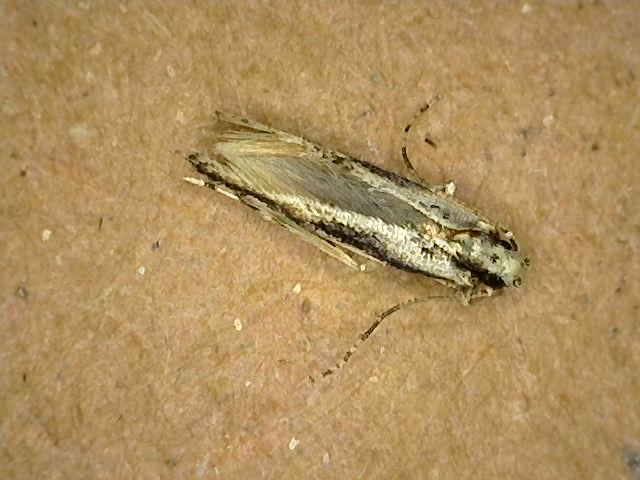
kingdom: Animalia
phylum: Arthropoda
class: Insecta
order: Lepidoptera
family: Cosmopterigidae
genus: Melanocinclis
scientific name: Melanocinclis lineigera
